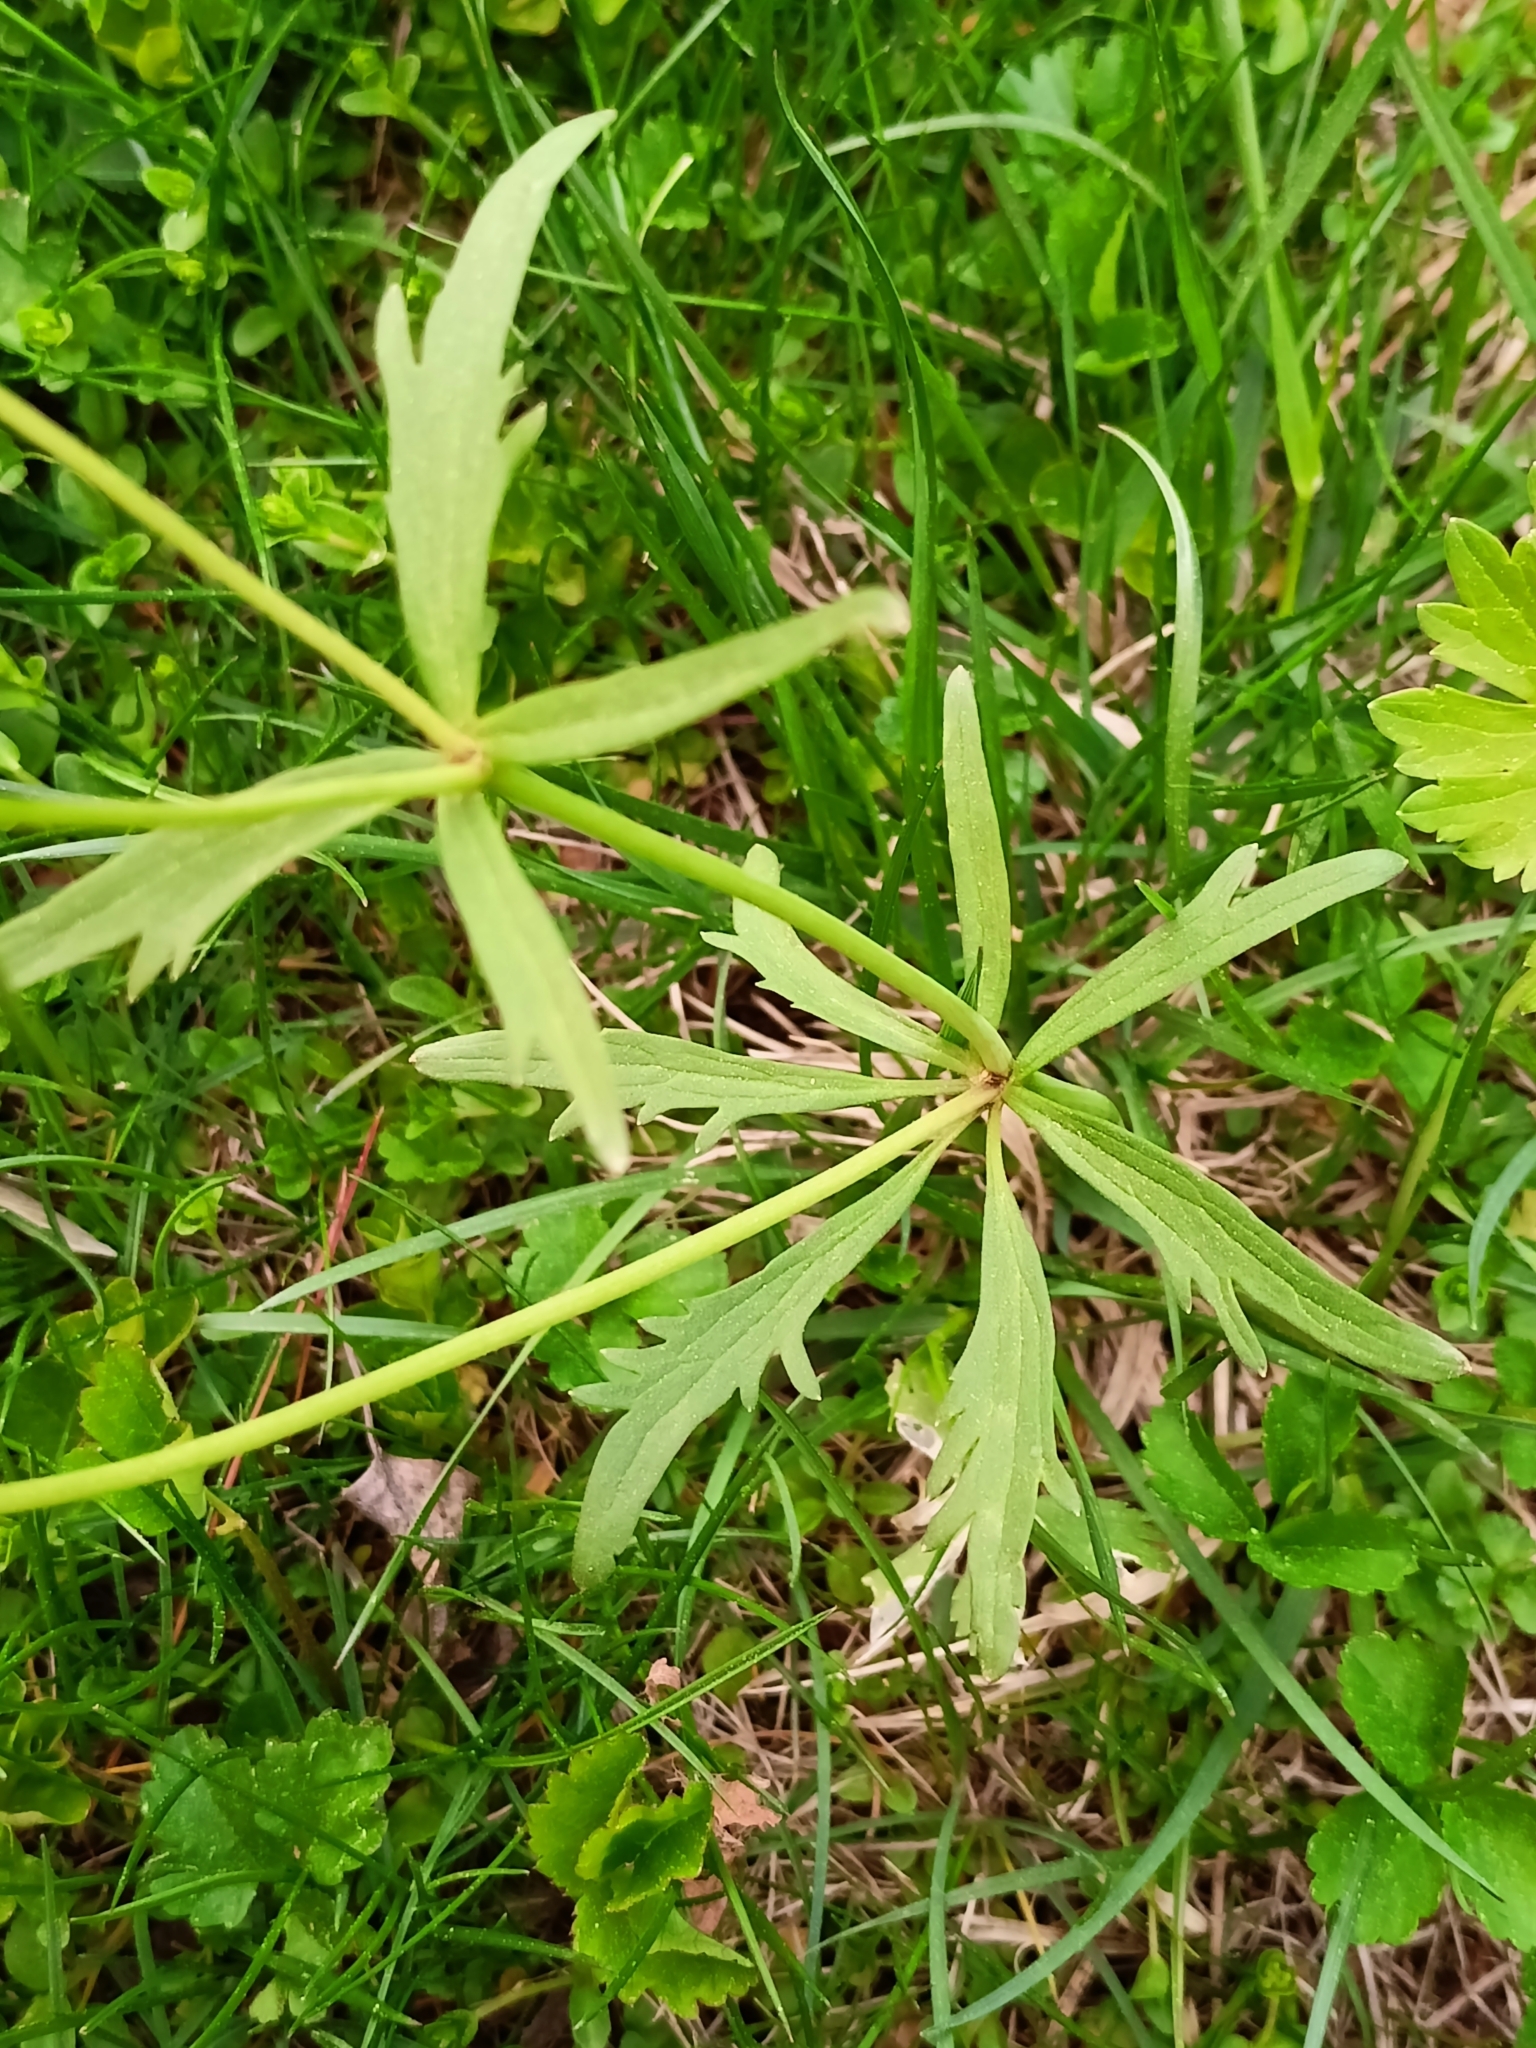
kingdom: Plantae
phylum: Tracheophyta
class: Magnoliopsida
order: Ranunculales
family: Ranunculaceae
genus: Ranunculus
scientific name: Ranunculus fallax
